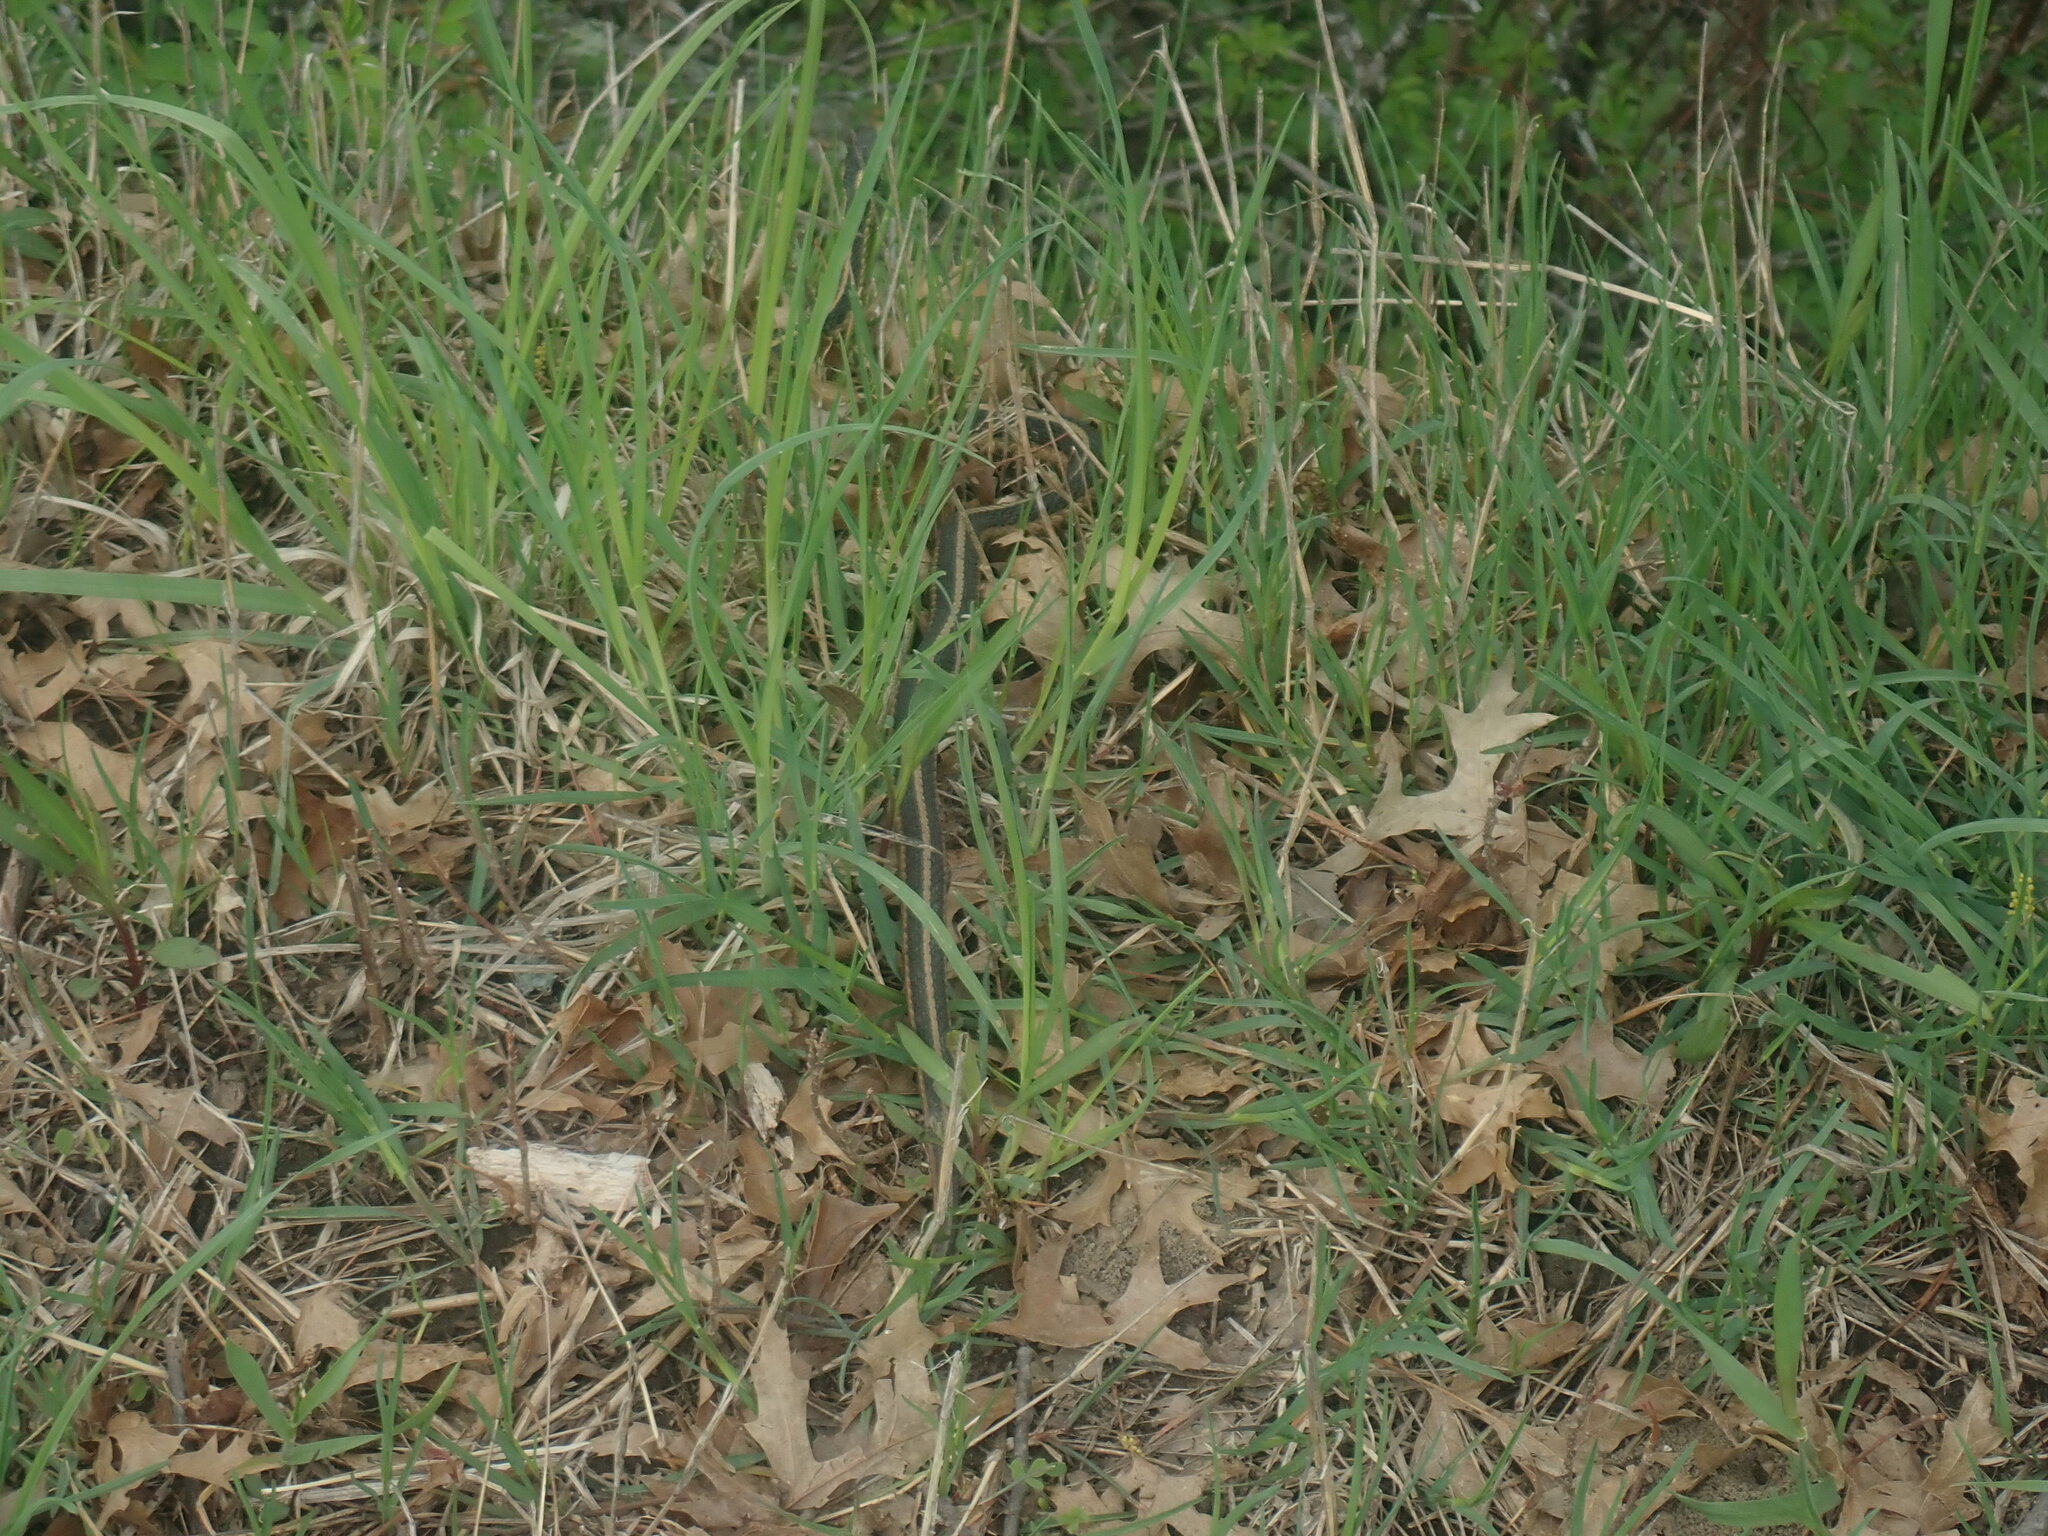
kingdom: Animalia
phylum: Chordata
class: Squamata
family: Colubridae
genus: Thamnophis
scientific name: Thamnophis sirtalis
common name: Common garter snake
